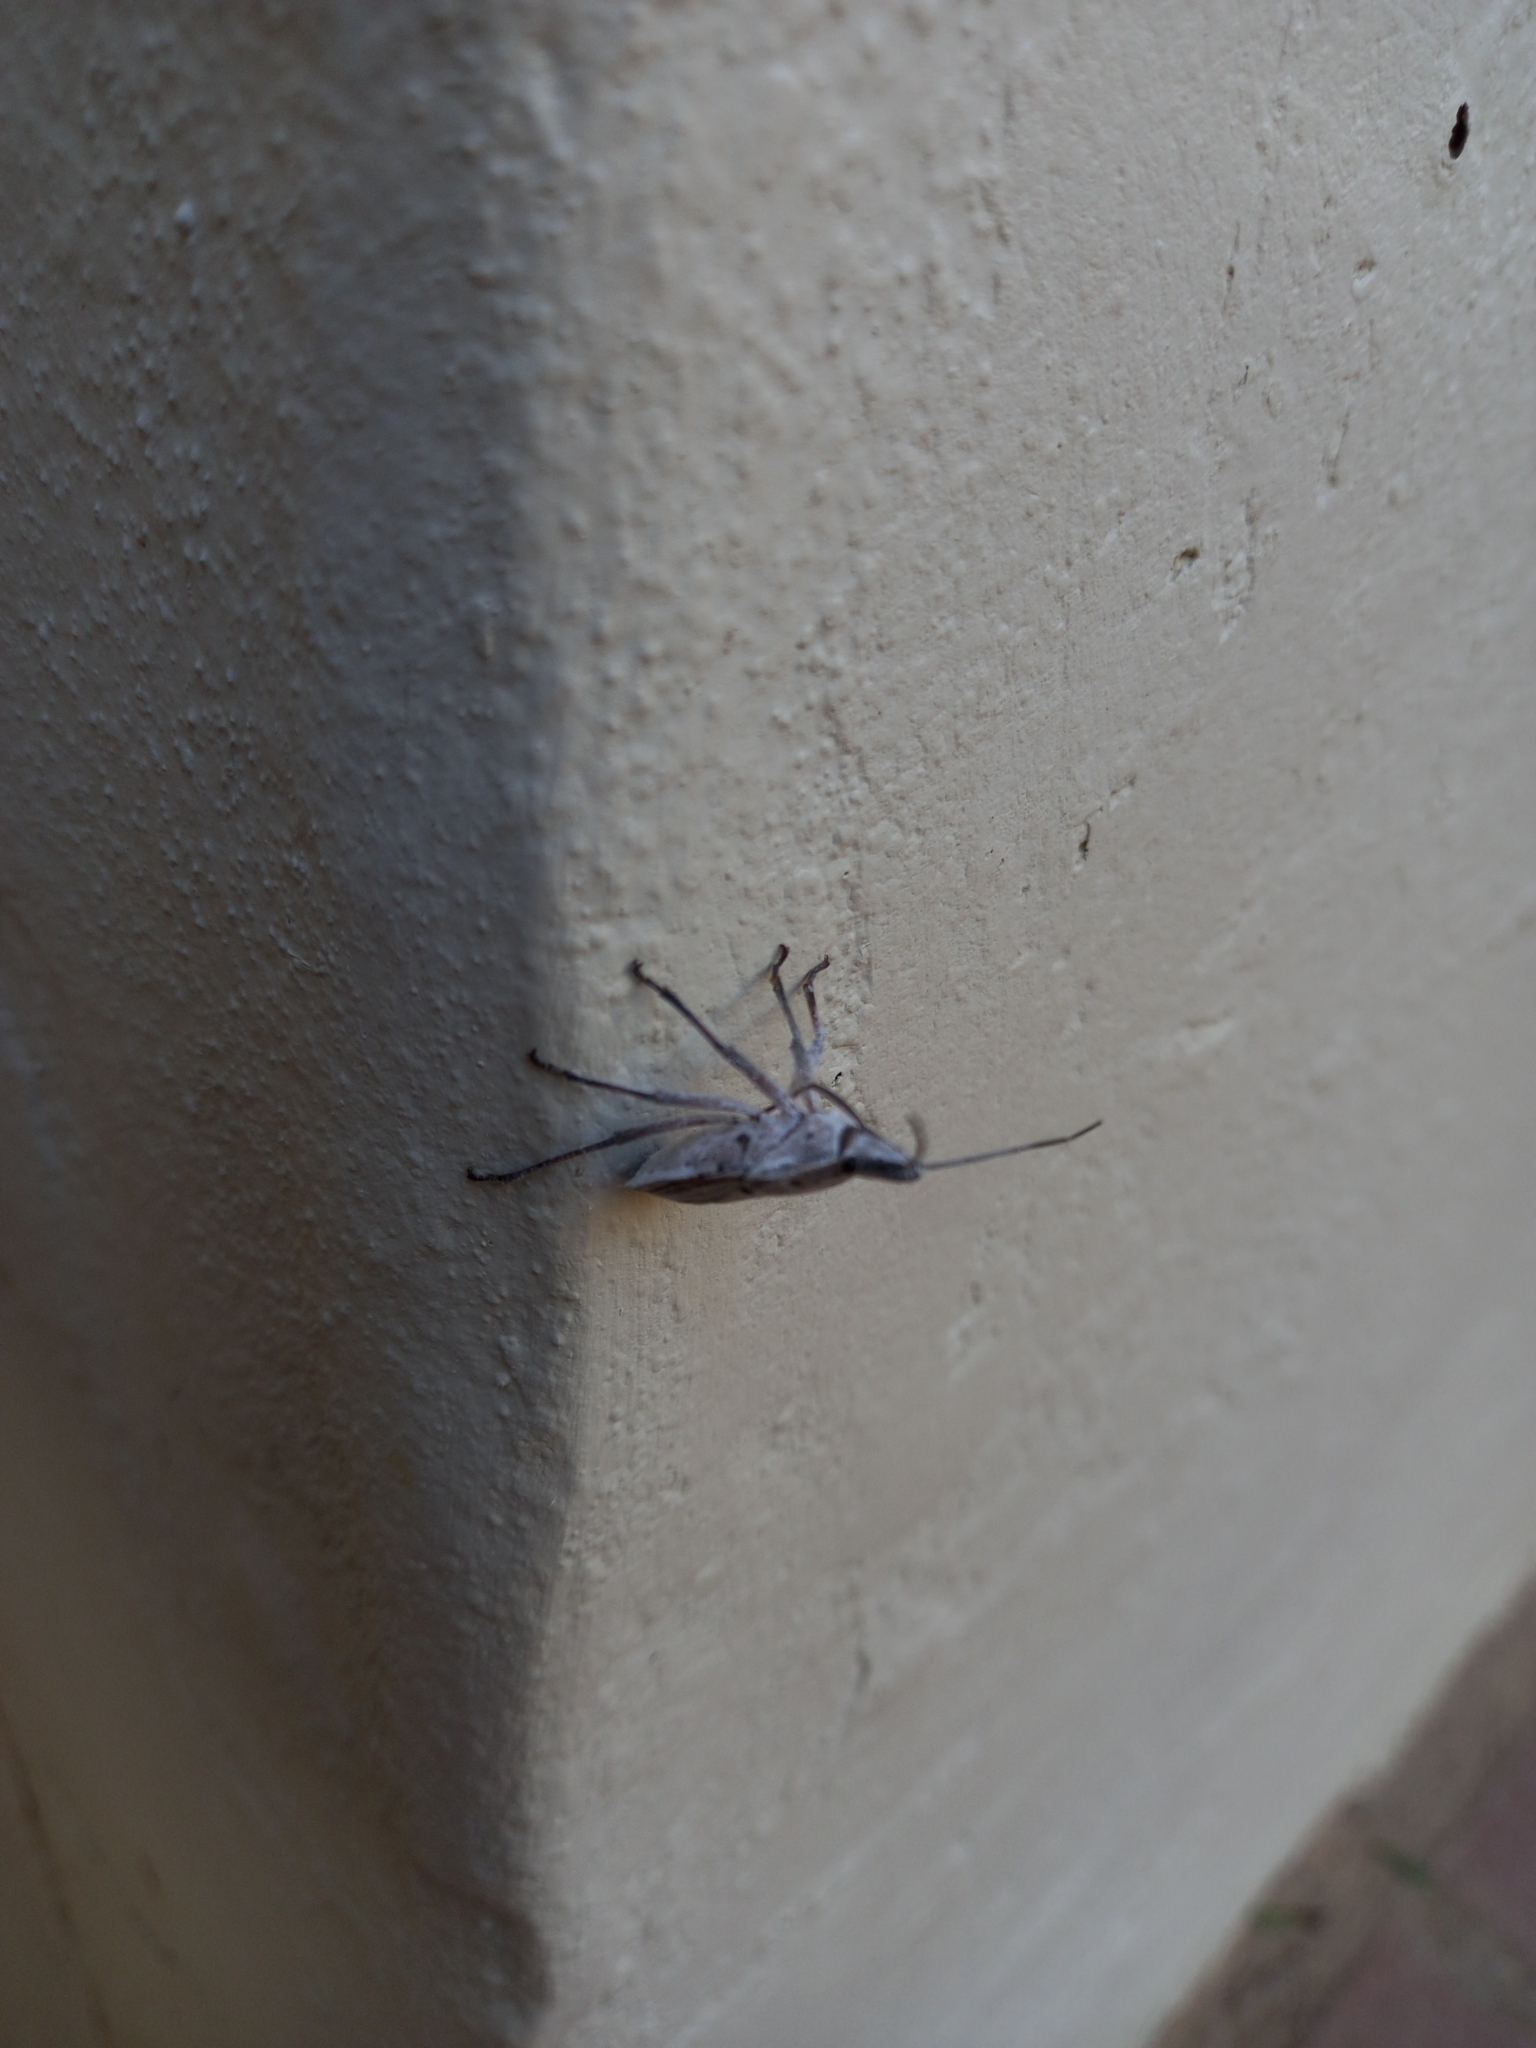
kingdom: Animalia
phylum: Arthropoda
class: Insecta
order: Hemiptera
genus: Peltasticus
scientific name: Peltasticus
